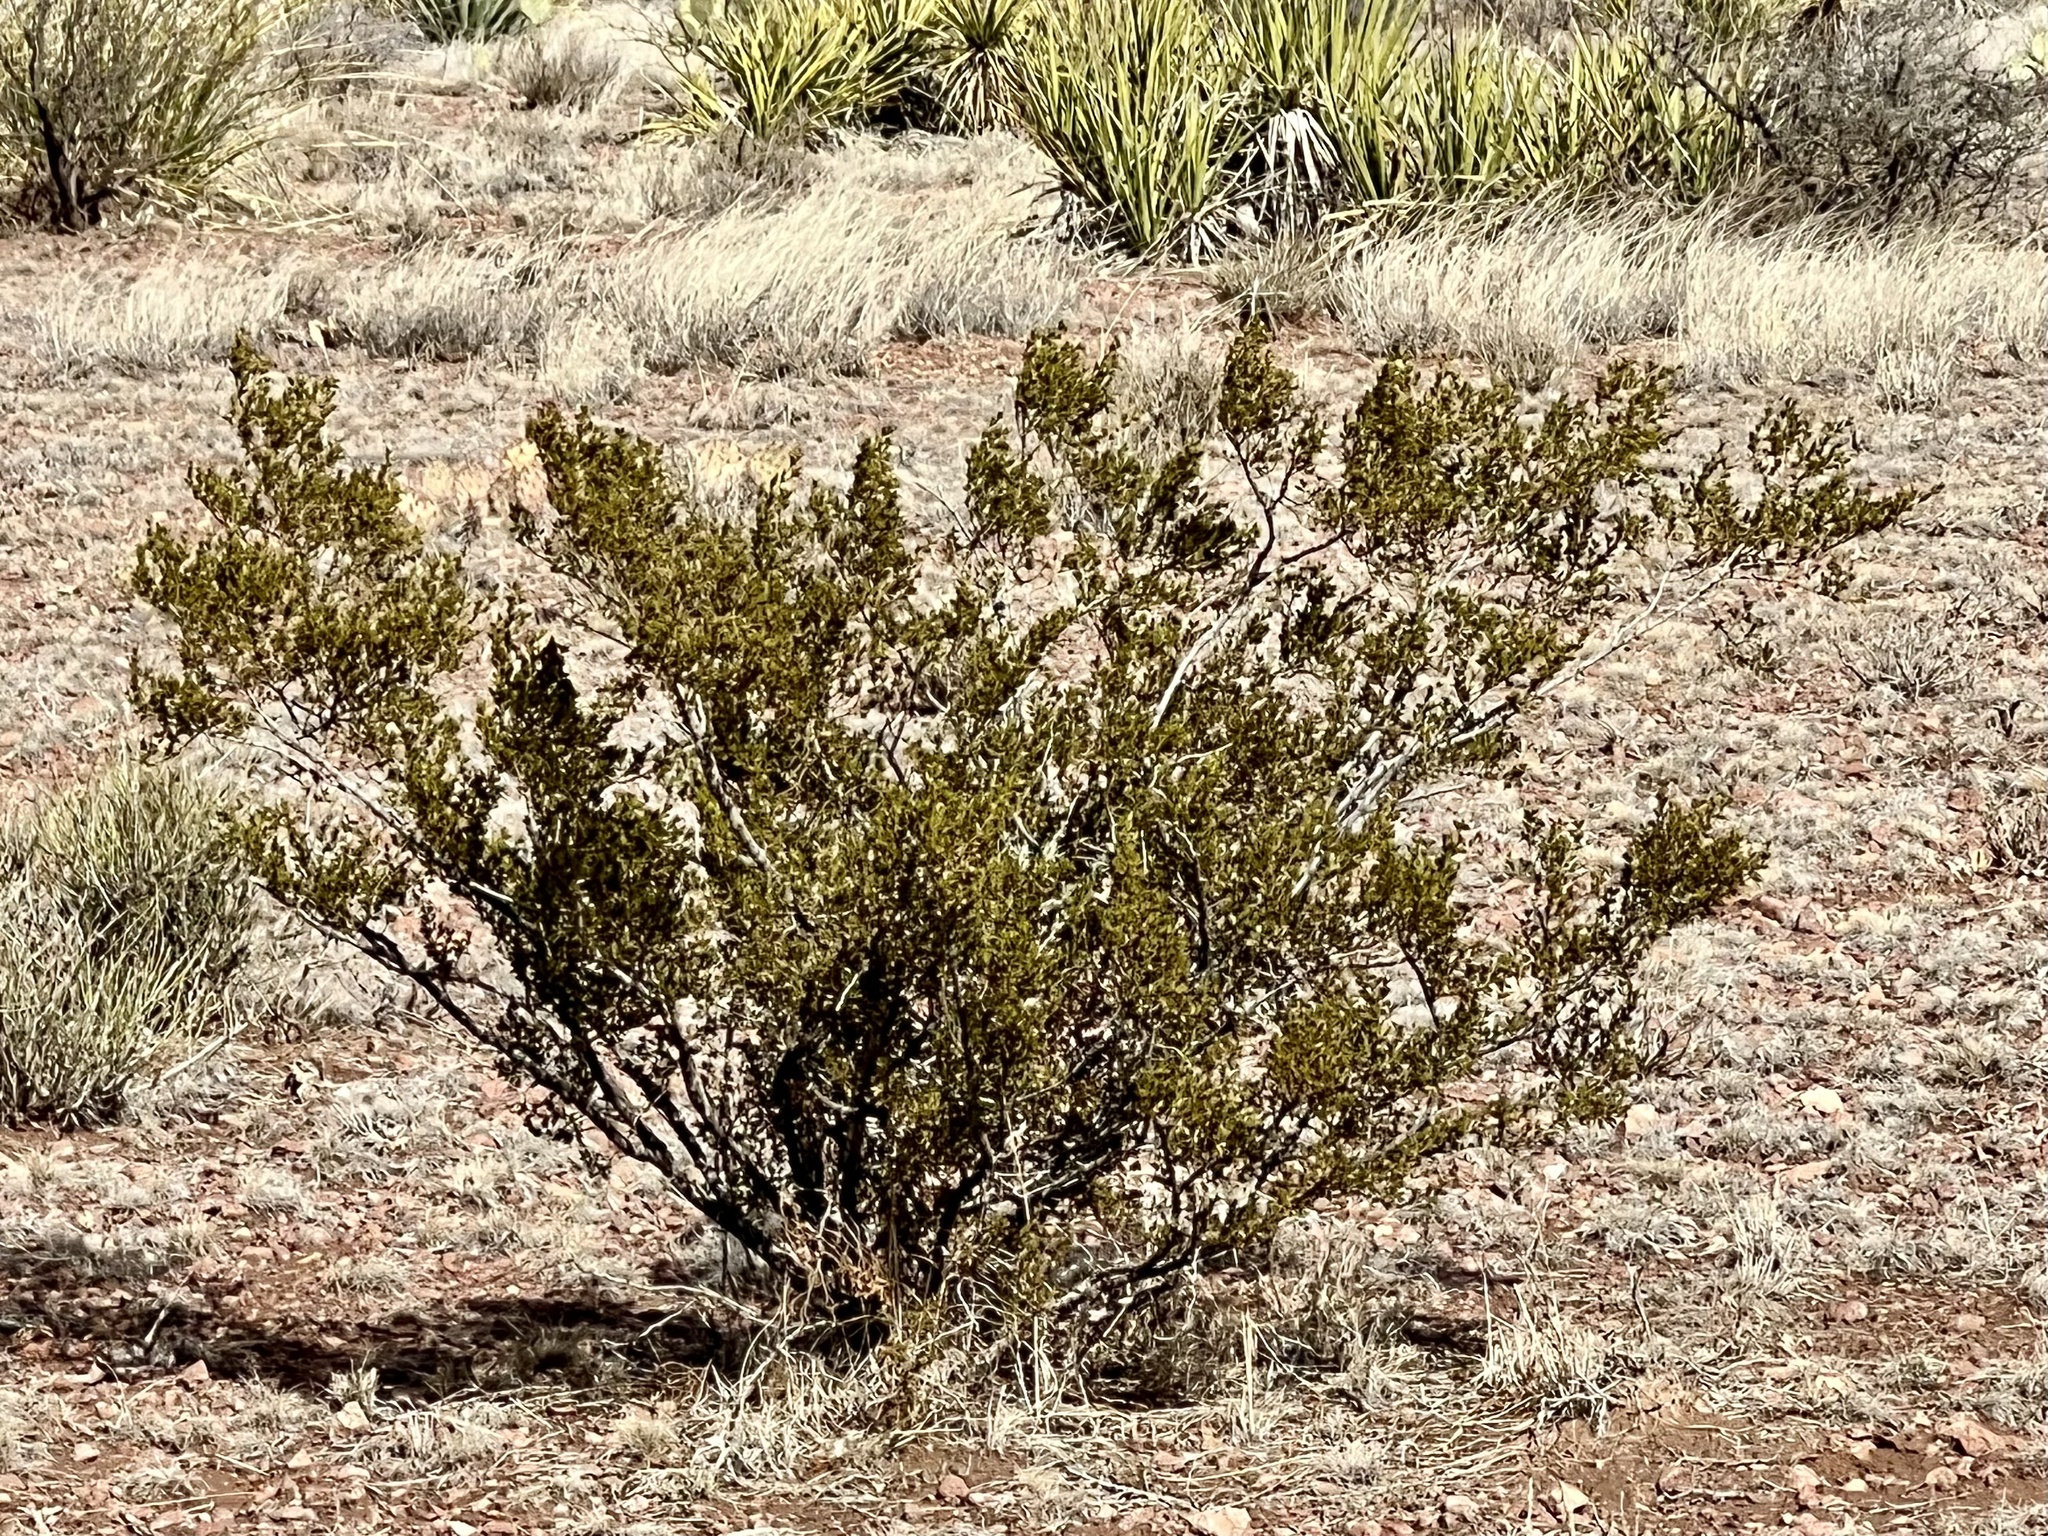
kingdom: Plantae
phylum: Tracheophyta
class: Magnoliopsida
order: Zygophyllales
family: Zygophyllaceae
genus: Larrea
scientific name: Larrea tridentata
